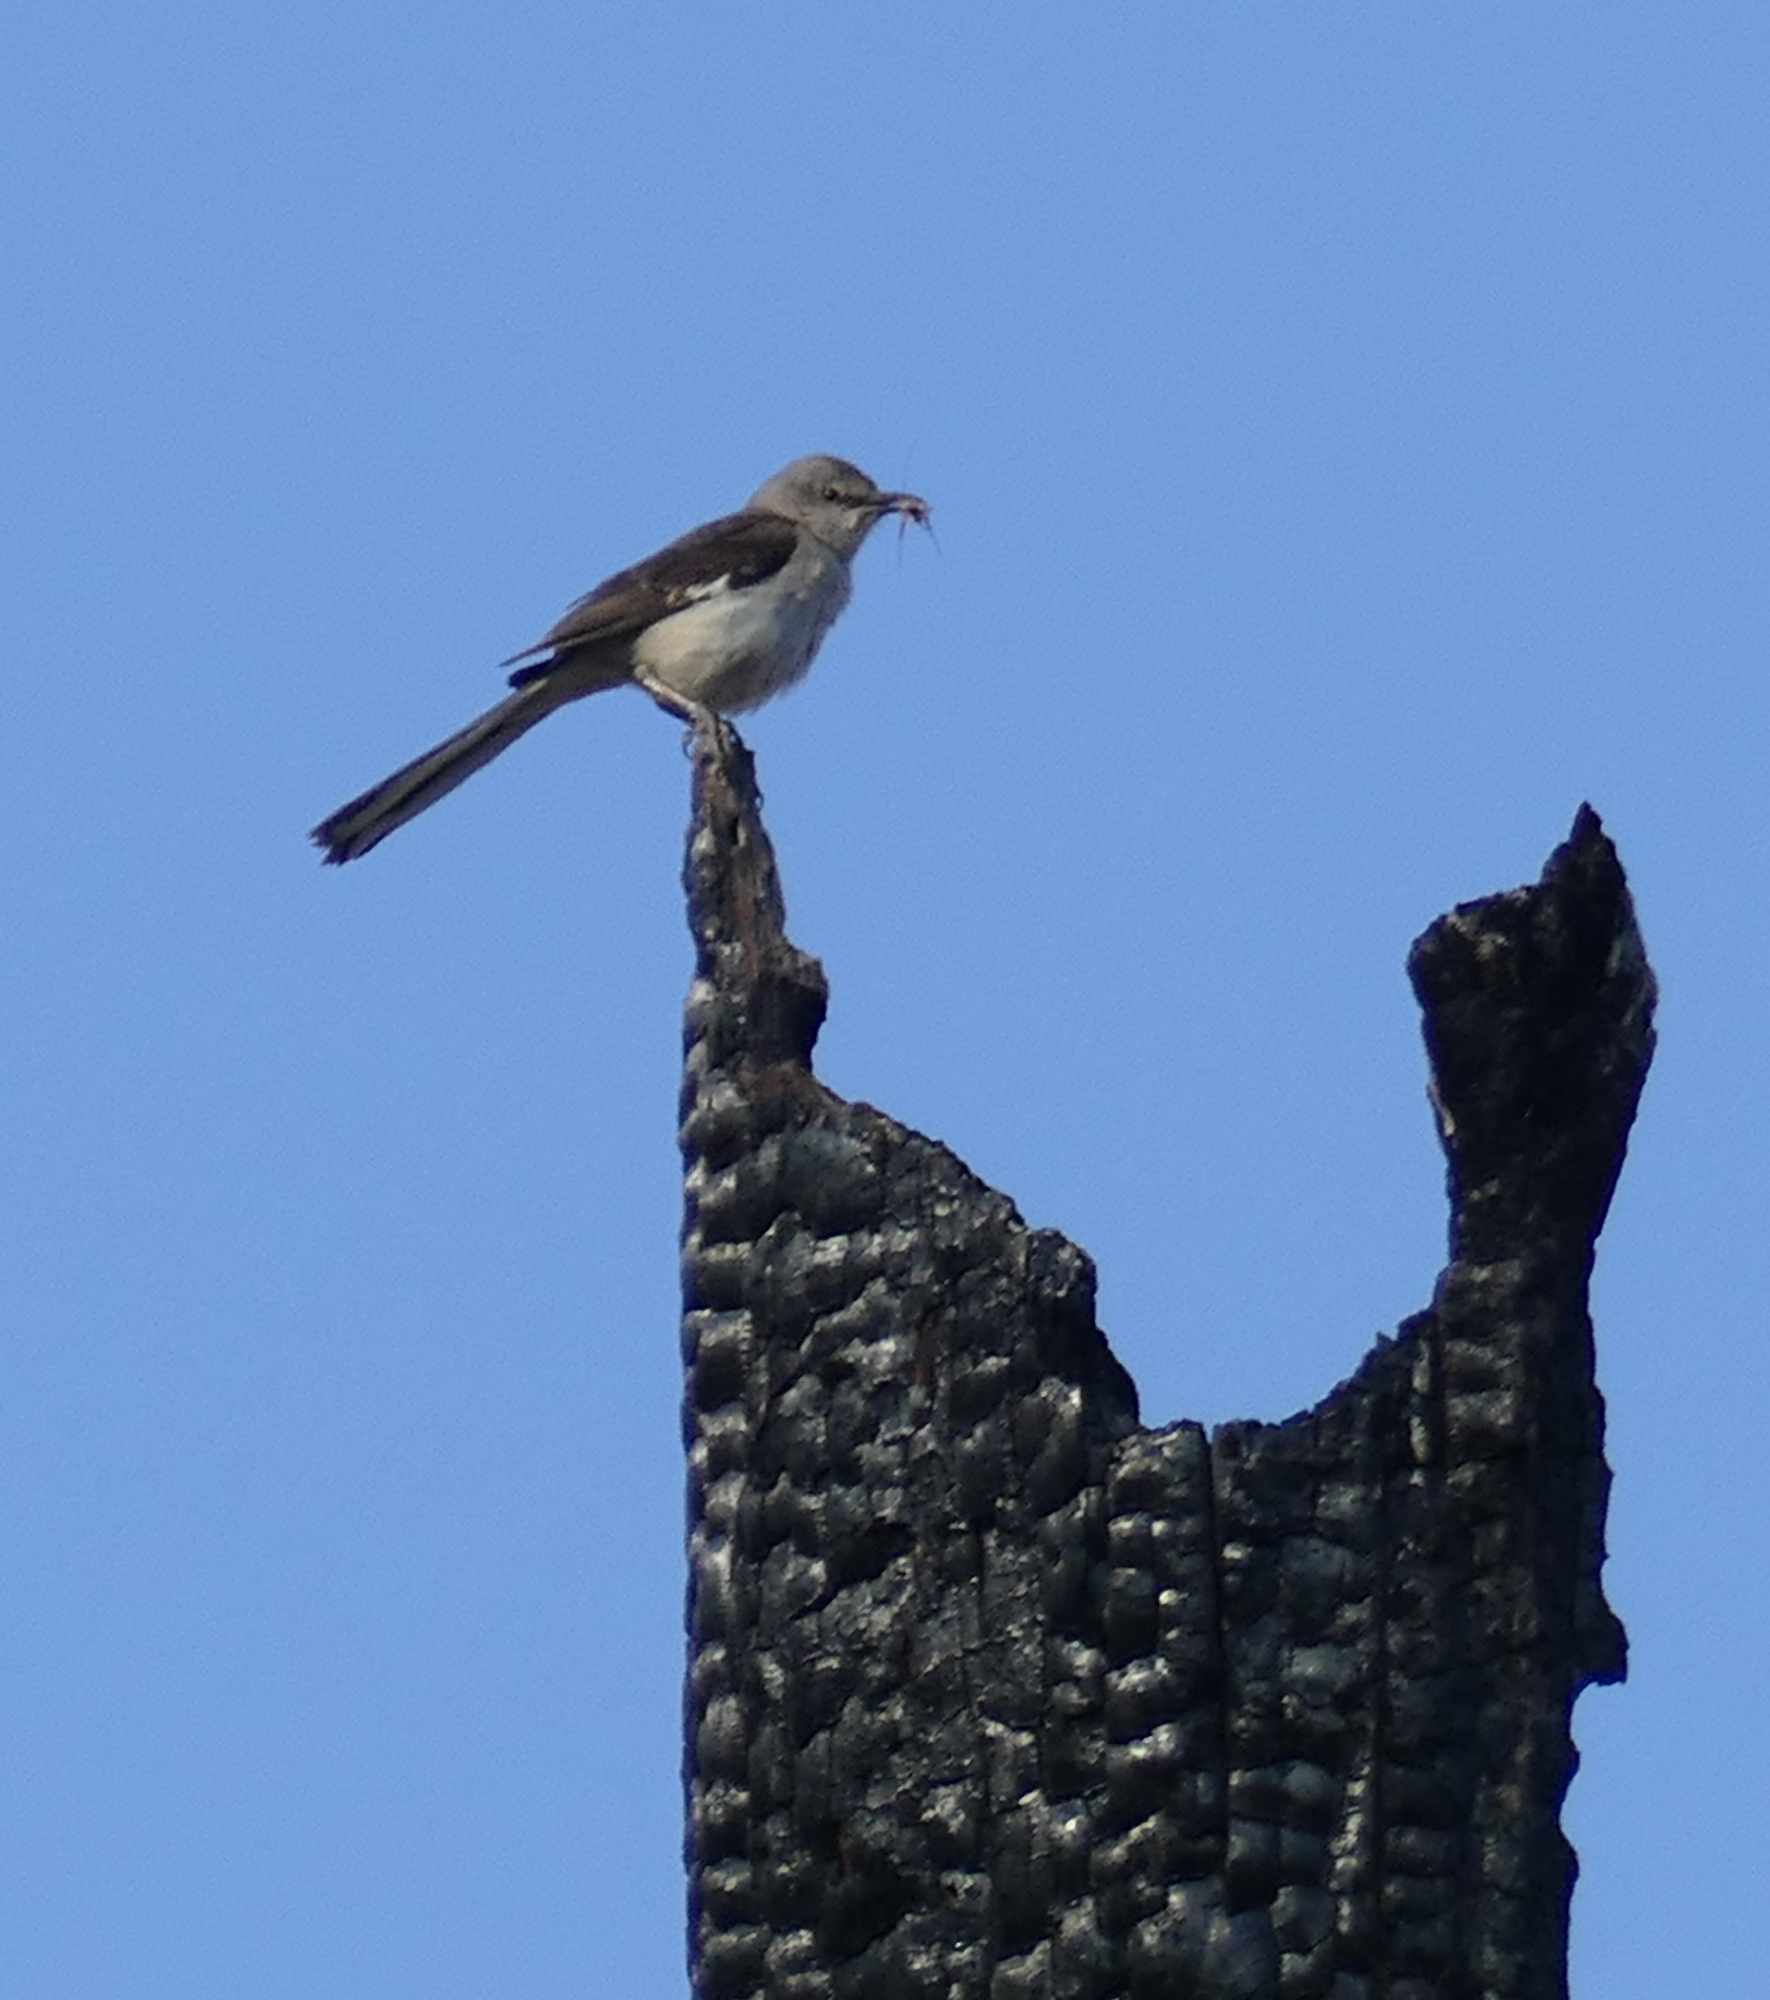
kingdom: Animalia
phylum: Chordata
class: Aves
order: Passeriformes
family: Mimidae
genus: Mimus
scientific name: Mimus polyglottos
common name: Northern mockingbird
